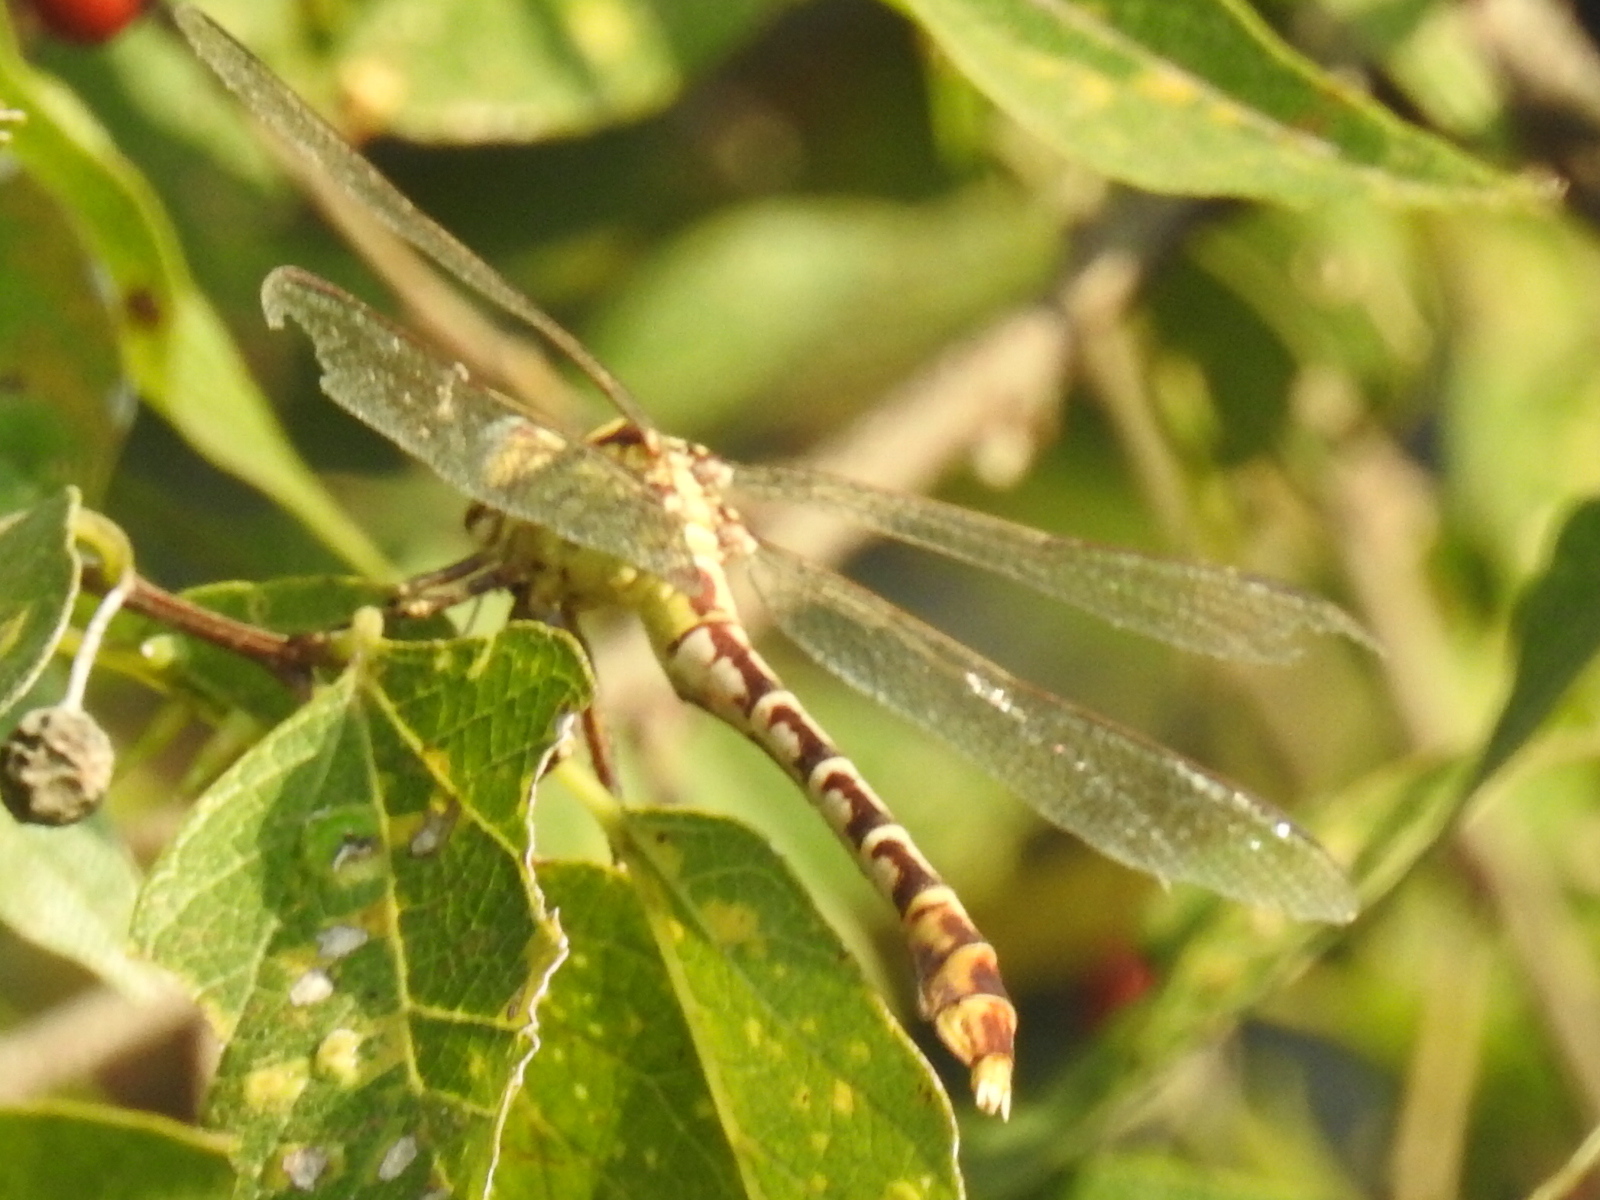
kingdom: Animalia
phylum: Arthropoda
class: Insecta
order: Odonata
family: Gomphidae
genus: Erpetogomphus
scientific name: Erpetogomphus designatus
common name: Eastern ringtail
